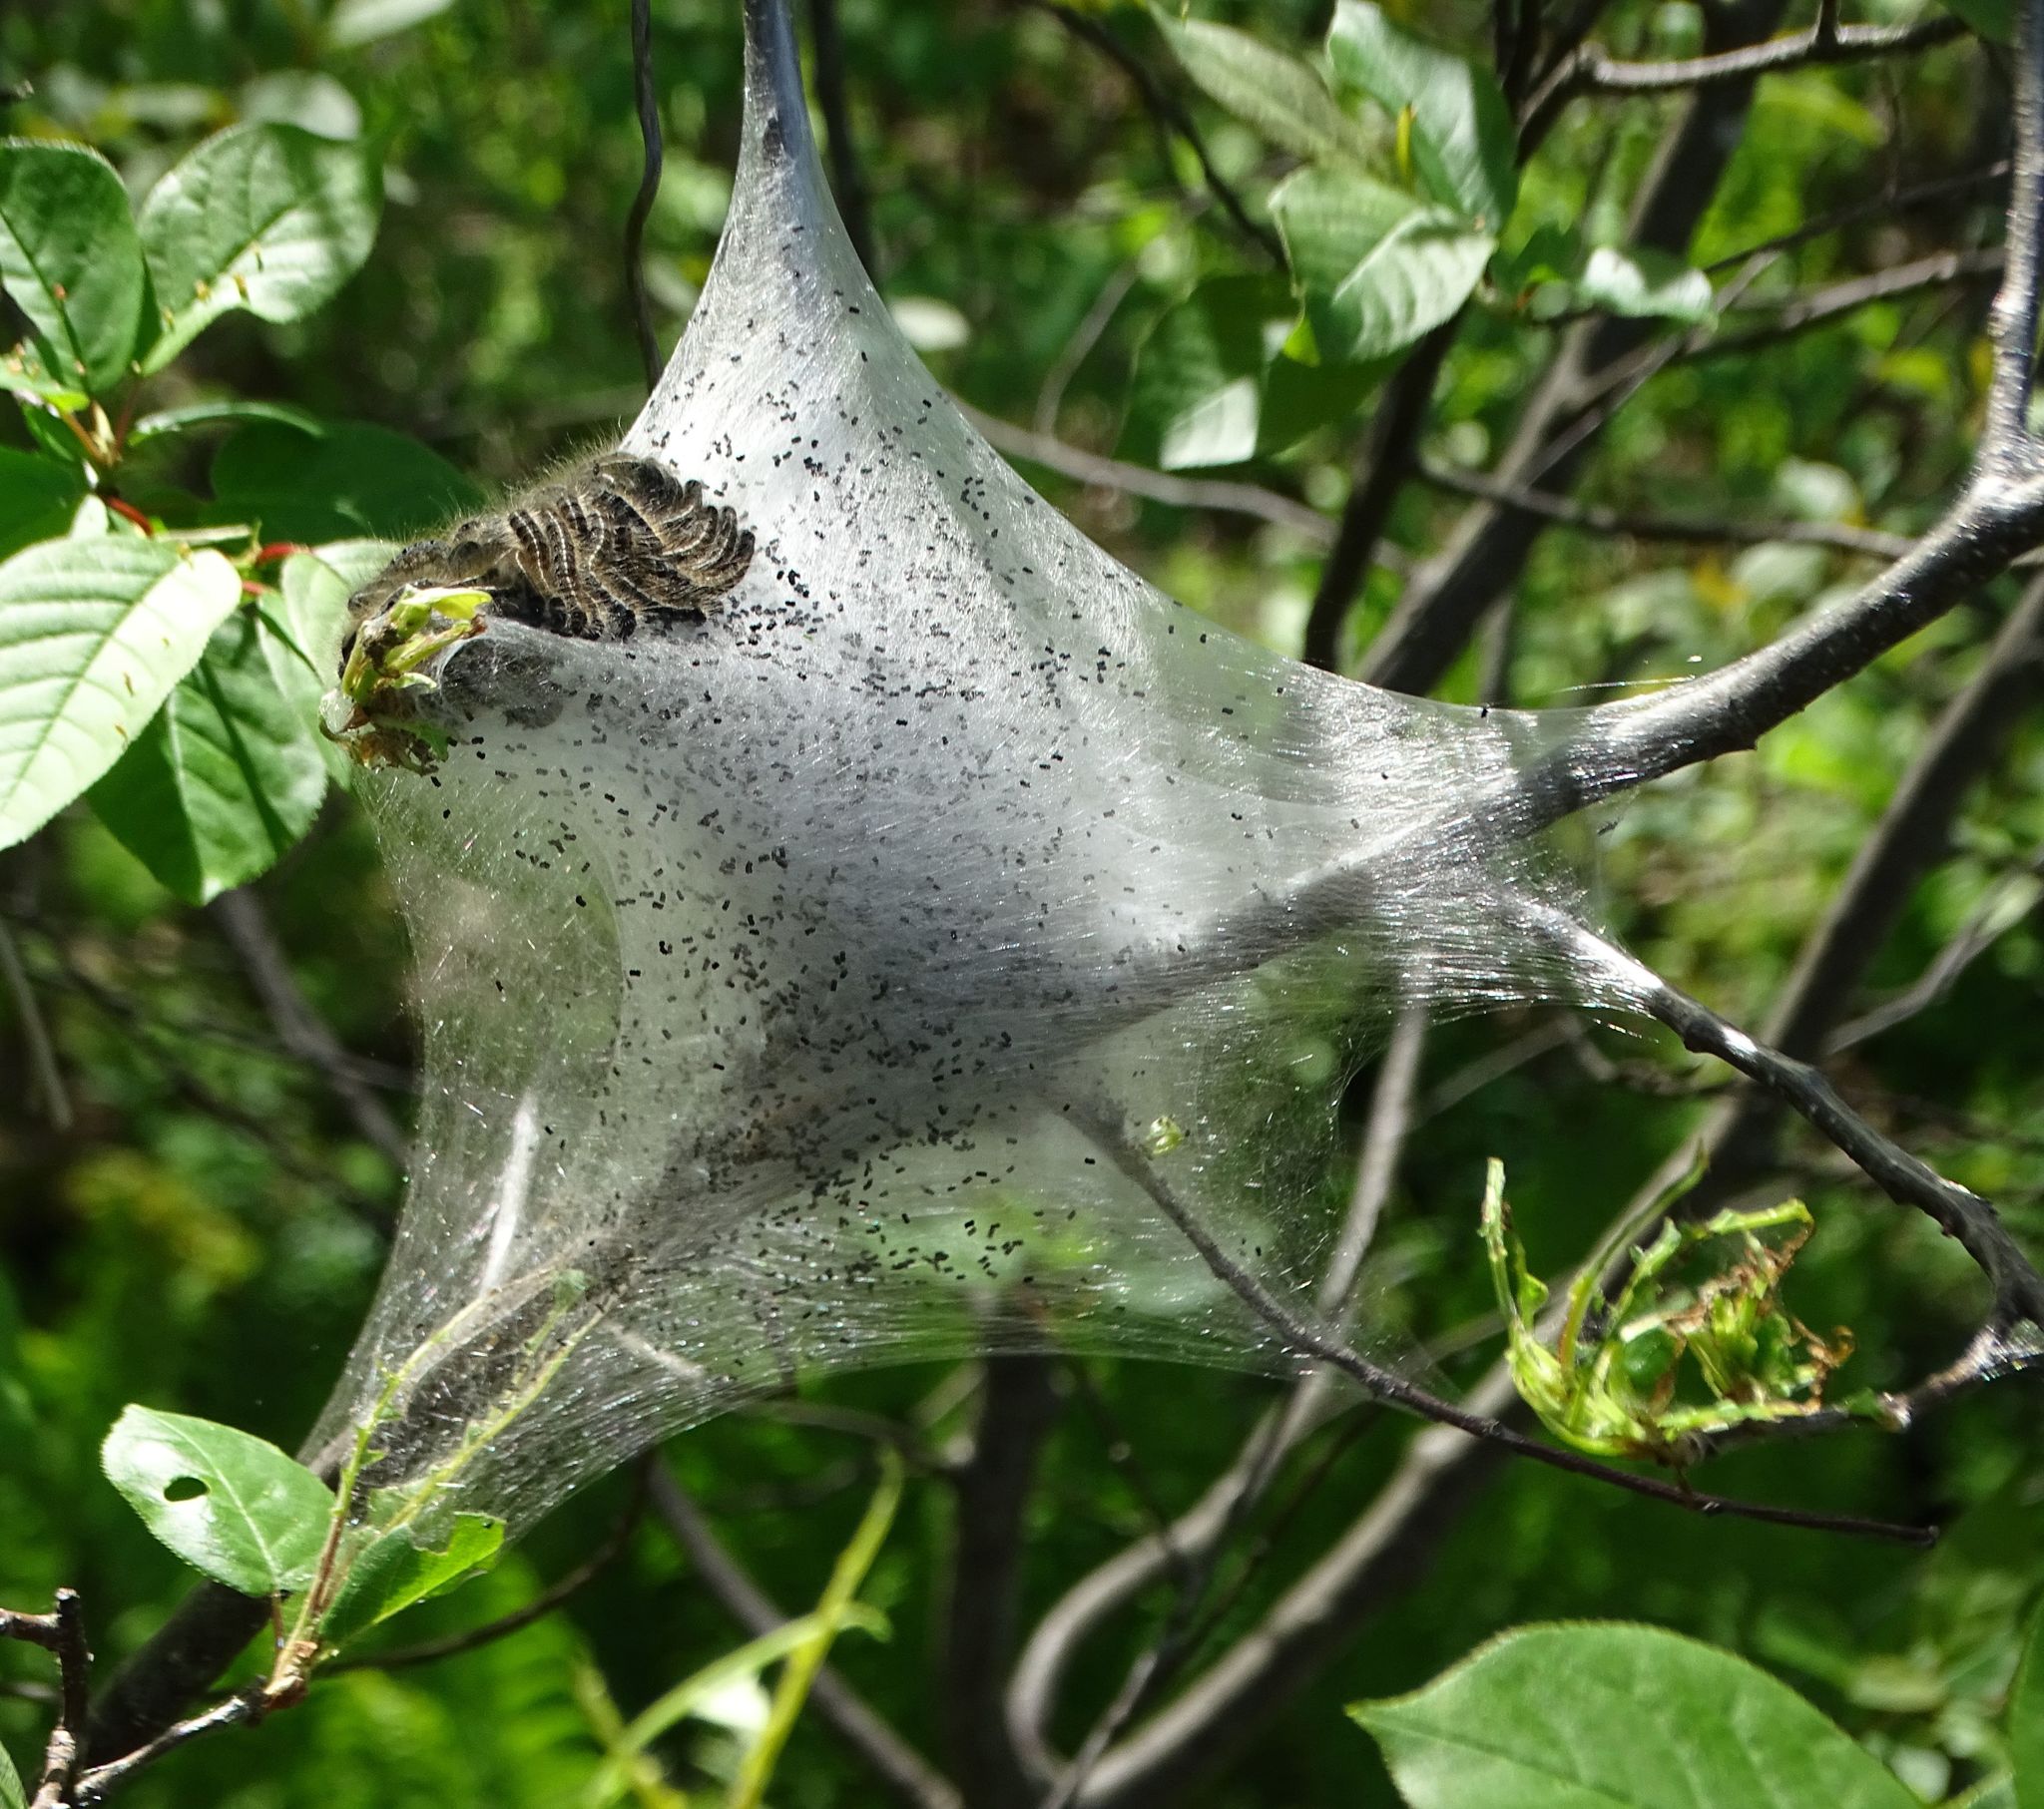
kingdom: Animalia
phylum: Arthropoda
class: Insecta
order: Lepidoptera
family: Lasiocampidae
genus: Malacosoma
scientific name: Malacosoma americana
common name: Eastern tent caterpillar moth
